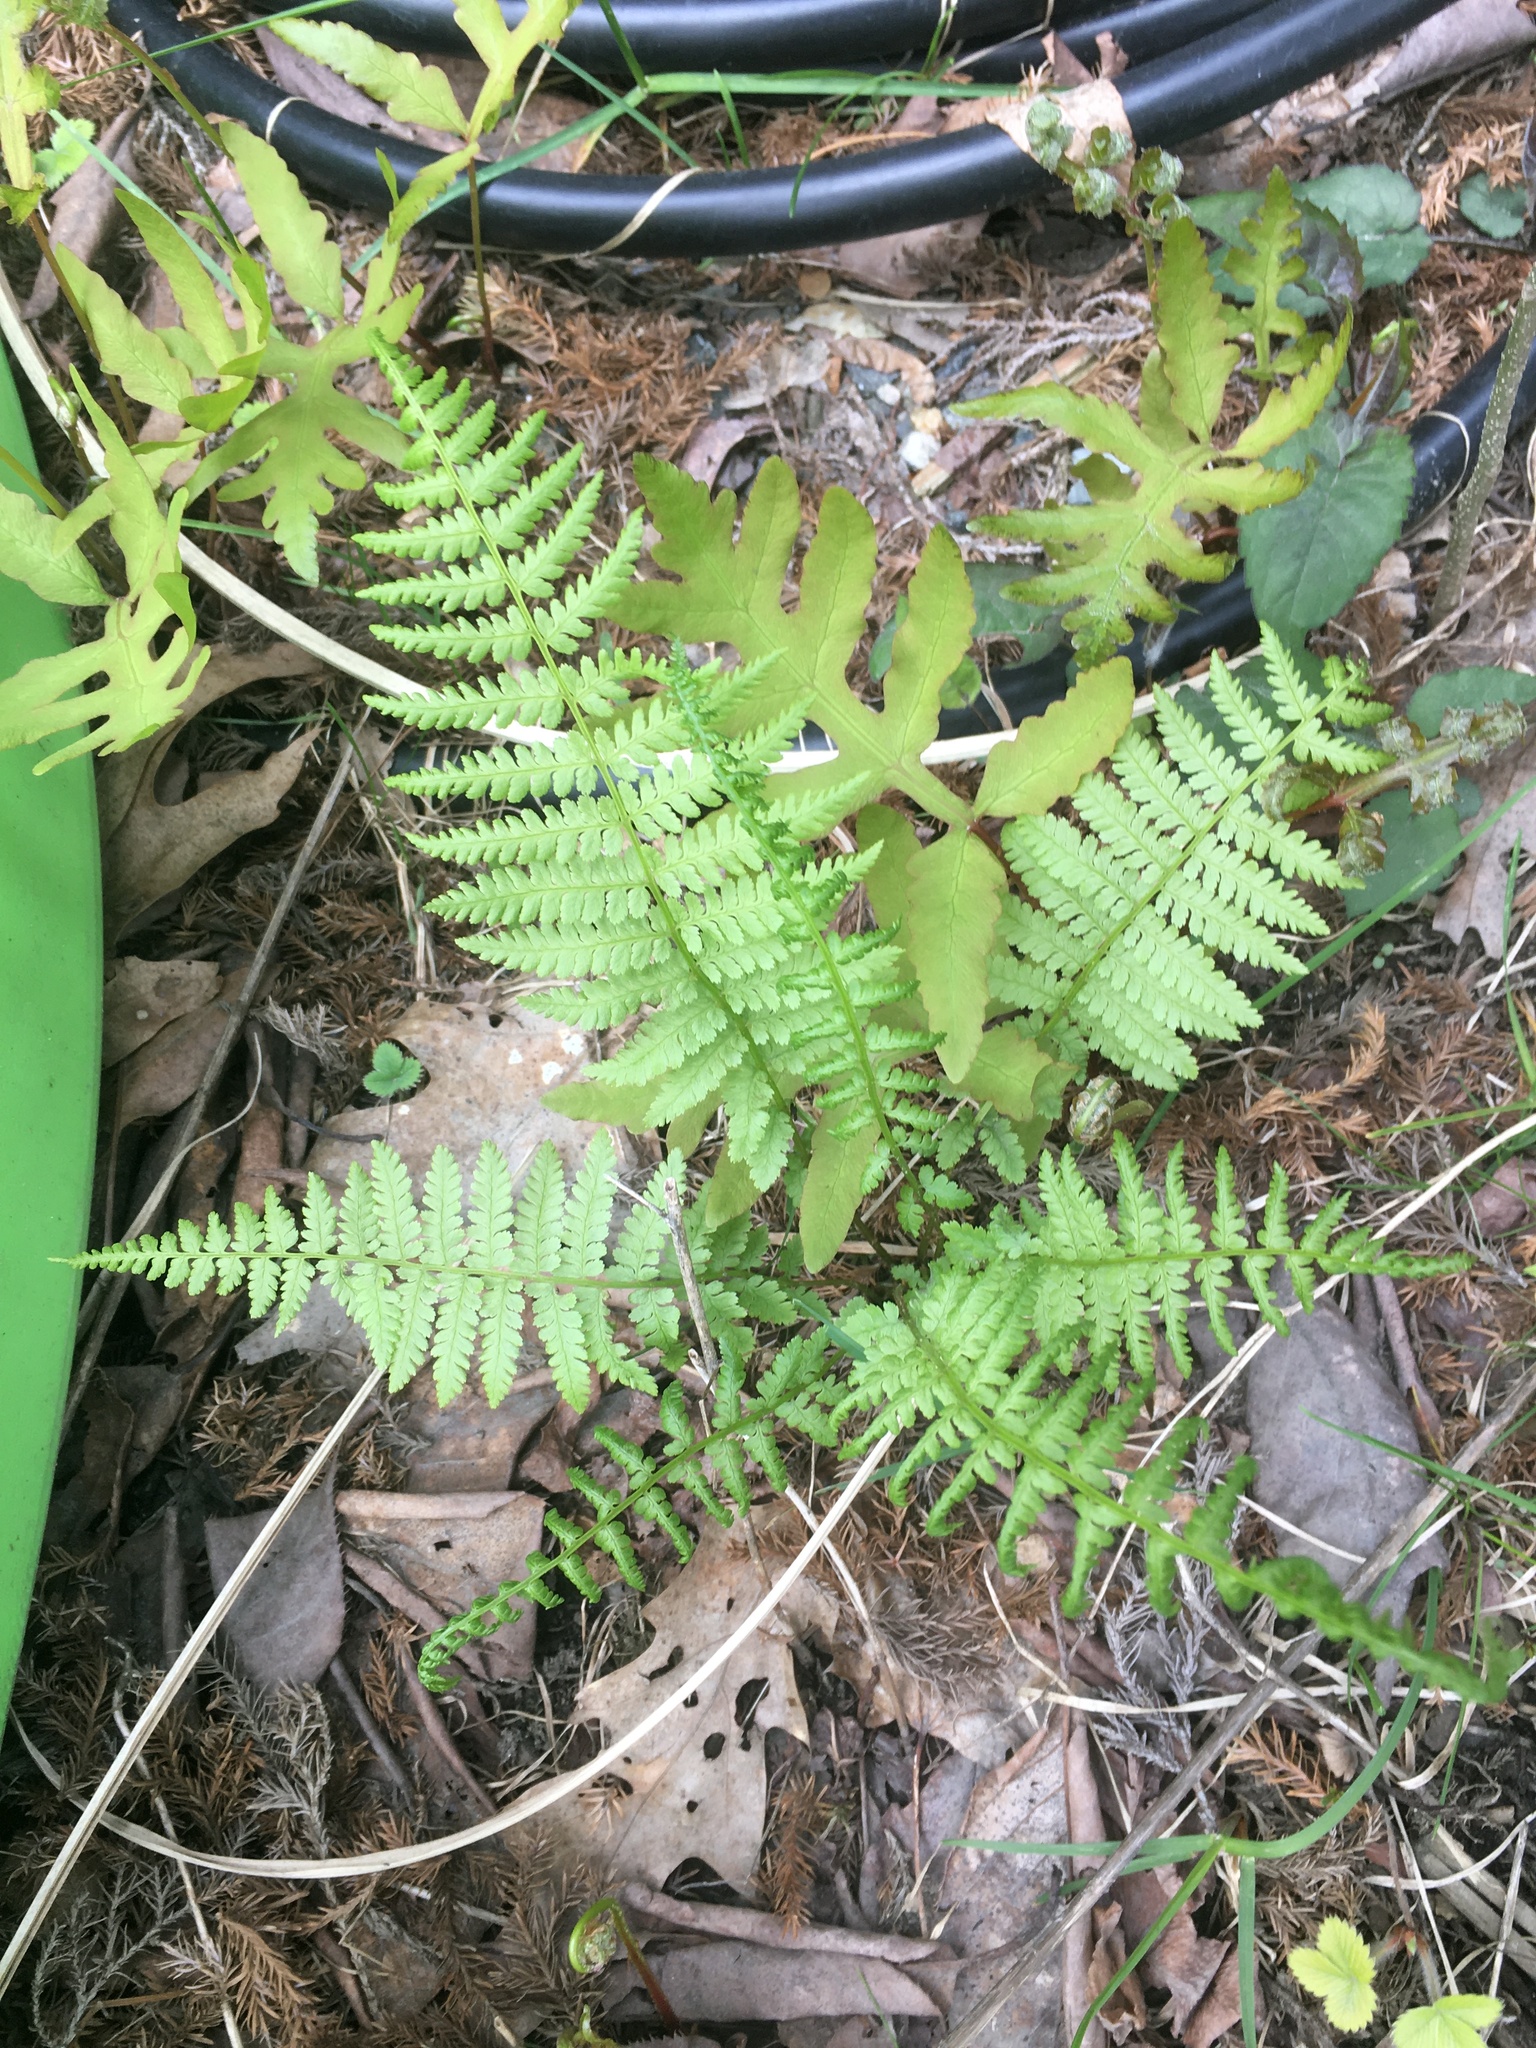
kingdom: Plantae
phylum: Tracheophyta
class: Polypodiopsida
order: Polypodiales
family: Athyriaceae
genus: Athyrium
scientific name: Athyrium angustum
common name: Northern lady fern
